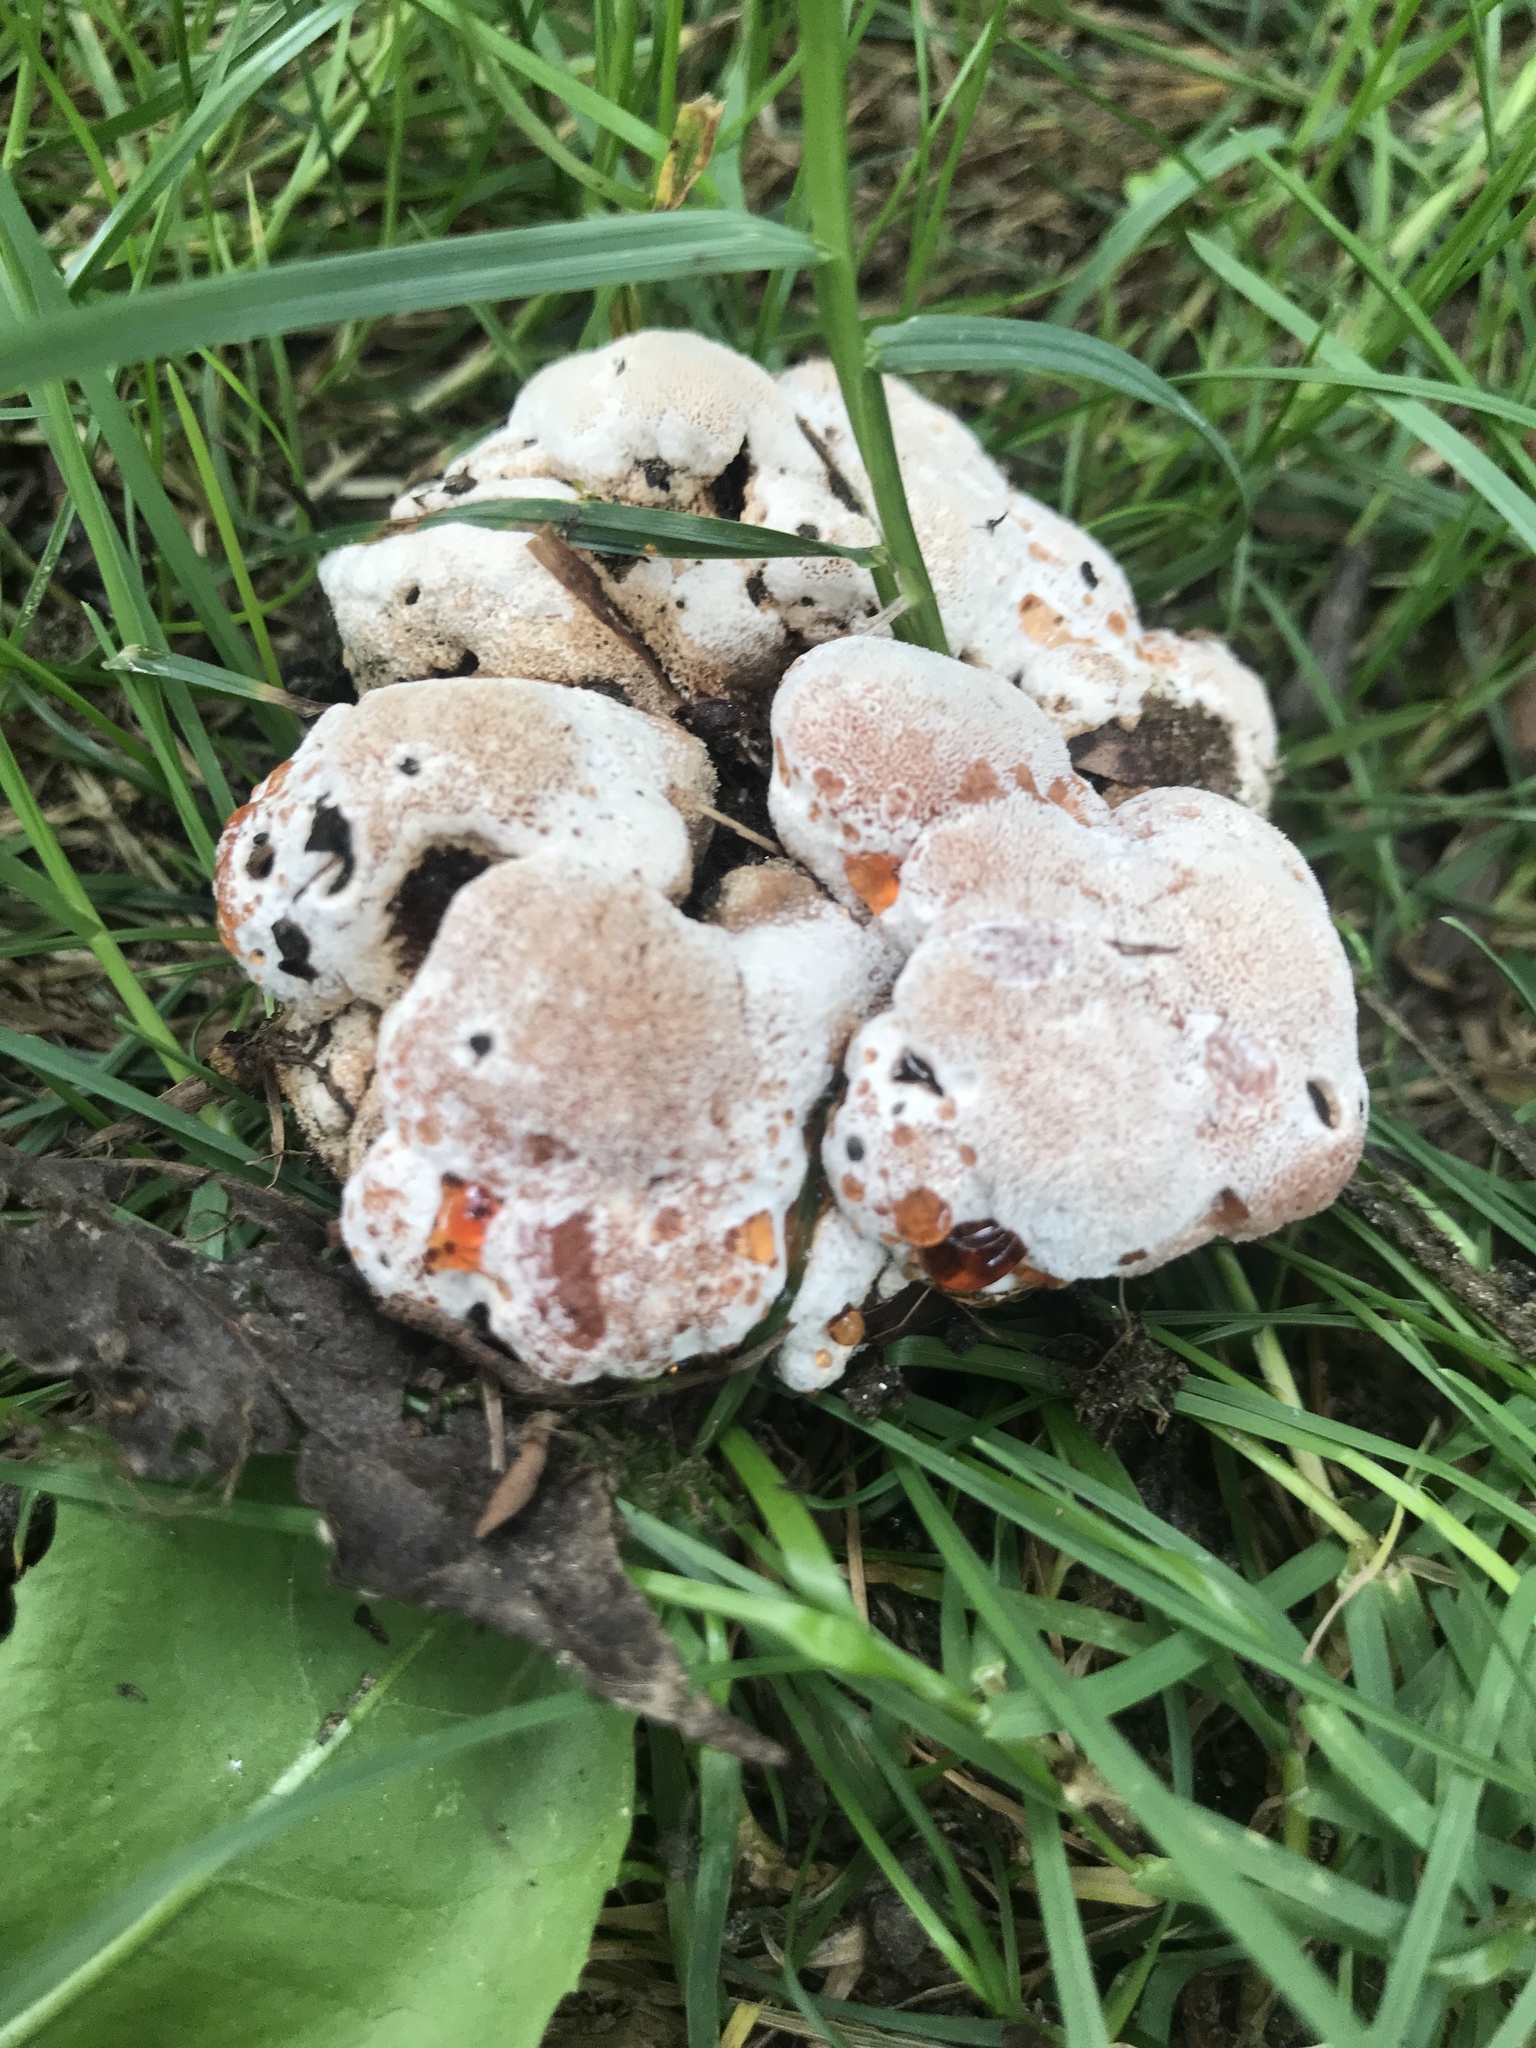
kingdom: Fungi
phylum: Basidiomycota
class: Agaricomycetes
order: Polyporales
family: Podoscyphaceae
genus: Abortiporus
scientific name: Abortiporus biennis
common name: Blushing rosette
